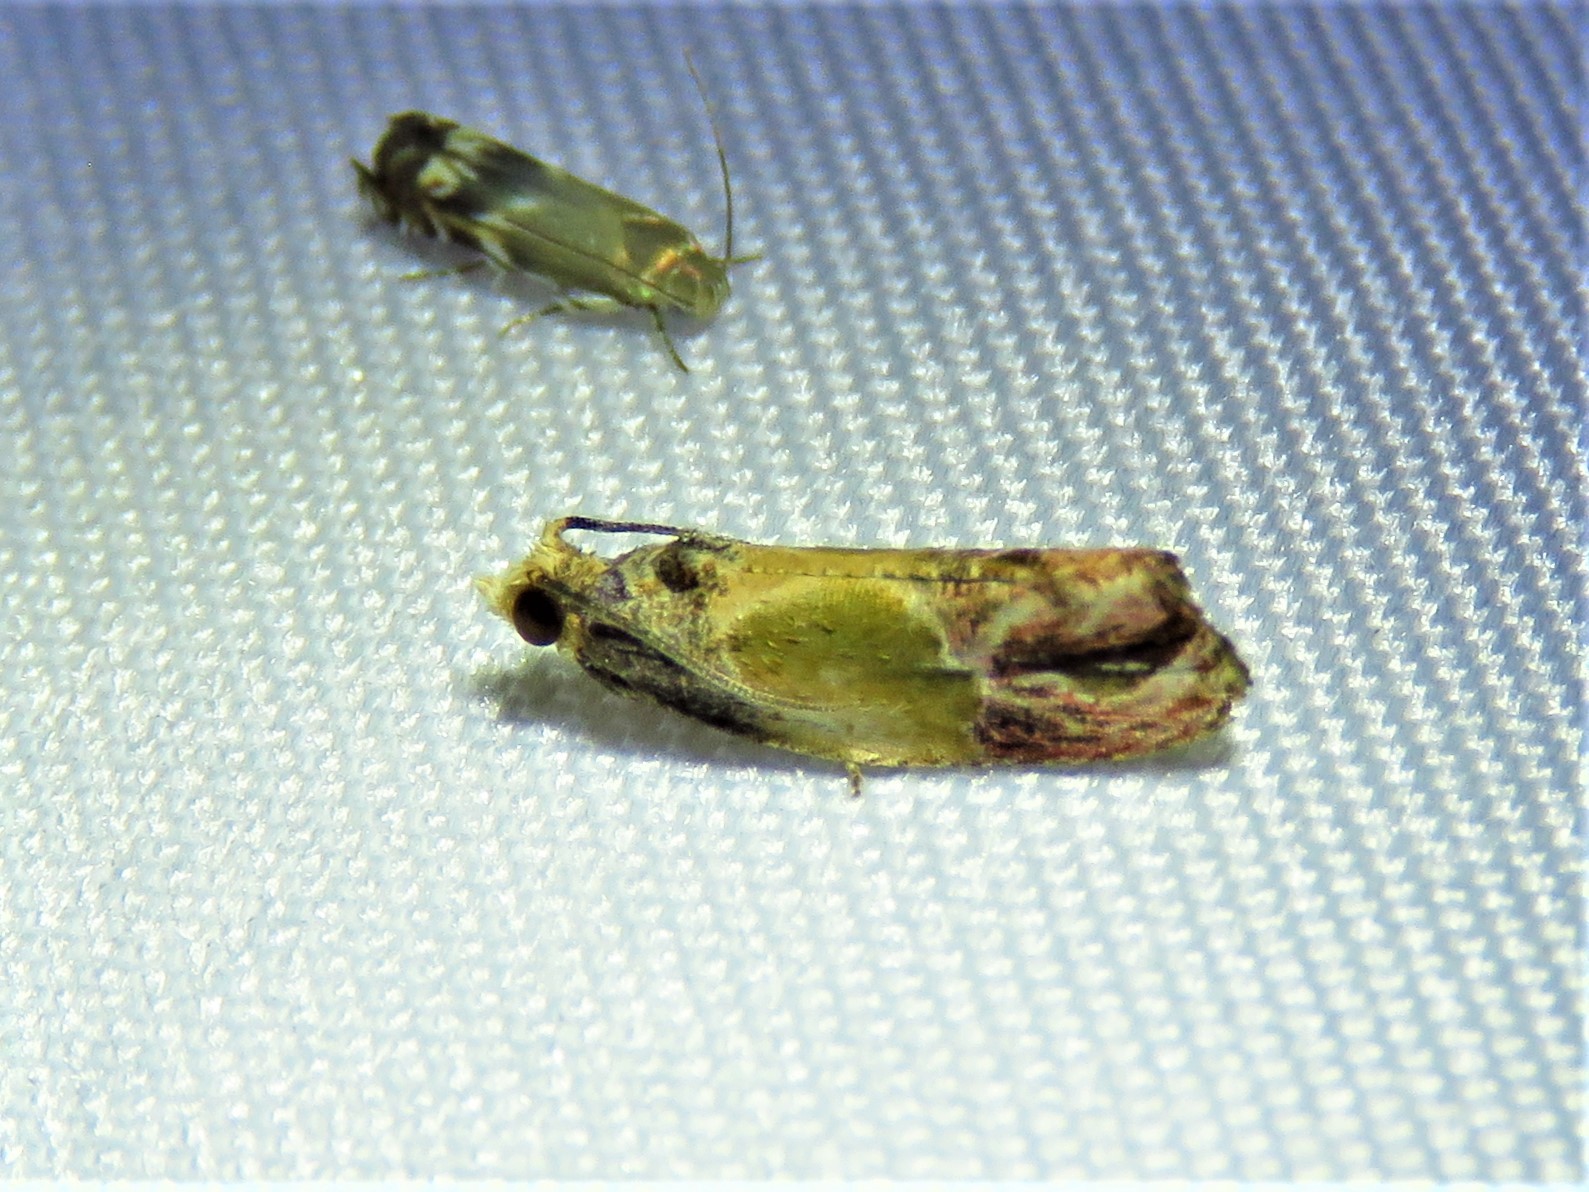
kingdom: Animalia
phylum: Arthropoda
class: Insecta
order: Lepidoptera
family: Tortricidae
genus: Eumarozia
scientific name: Eumarozia malachitana
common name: Sculptured moth
